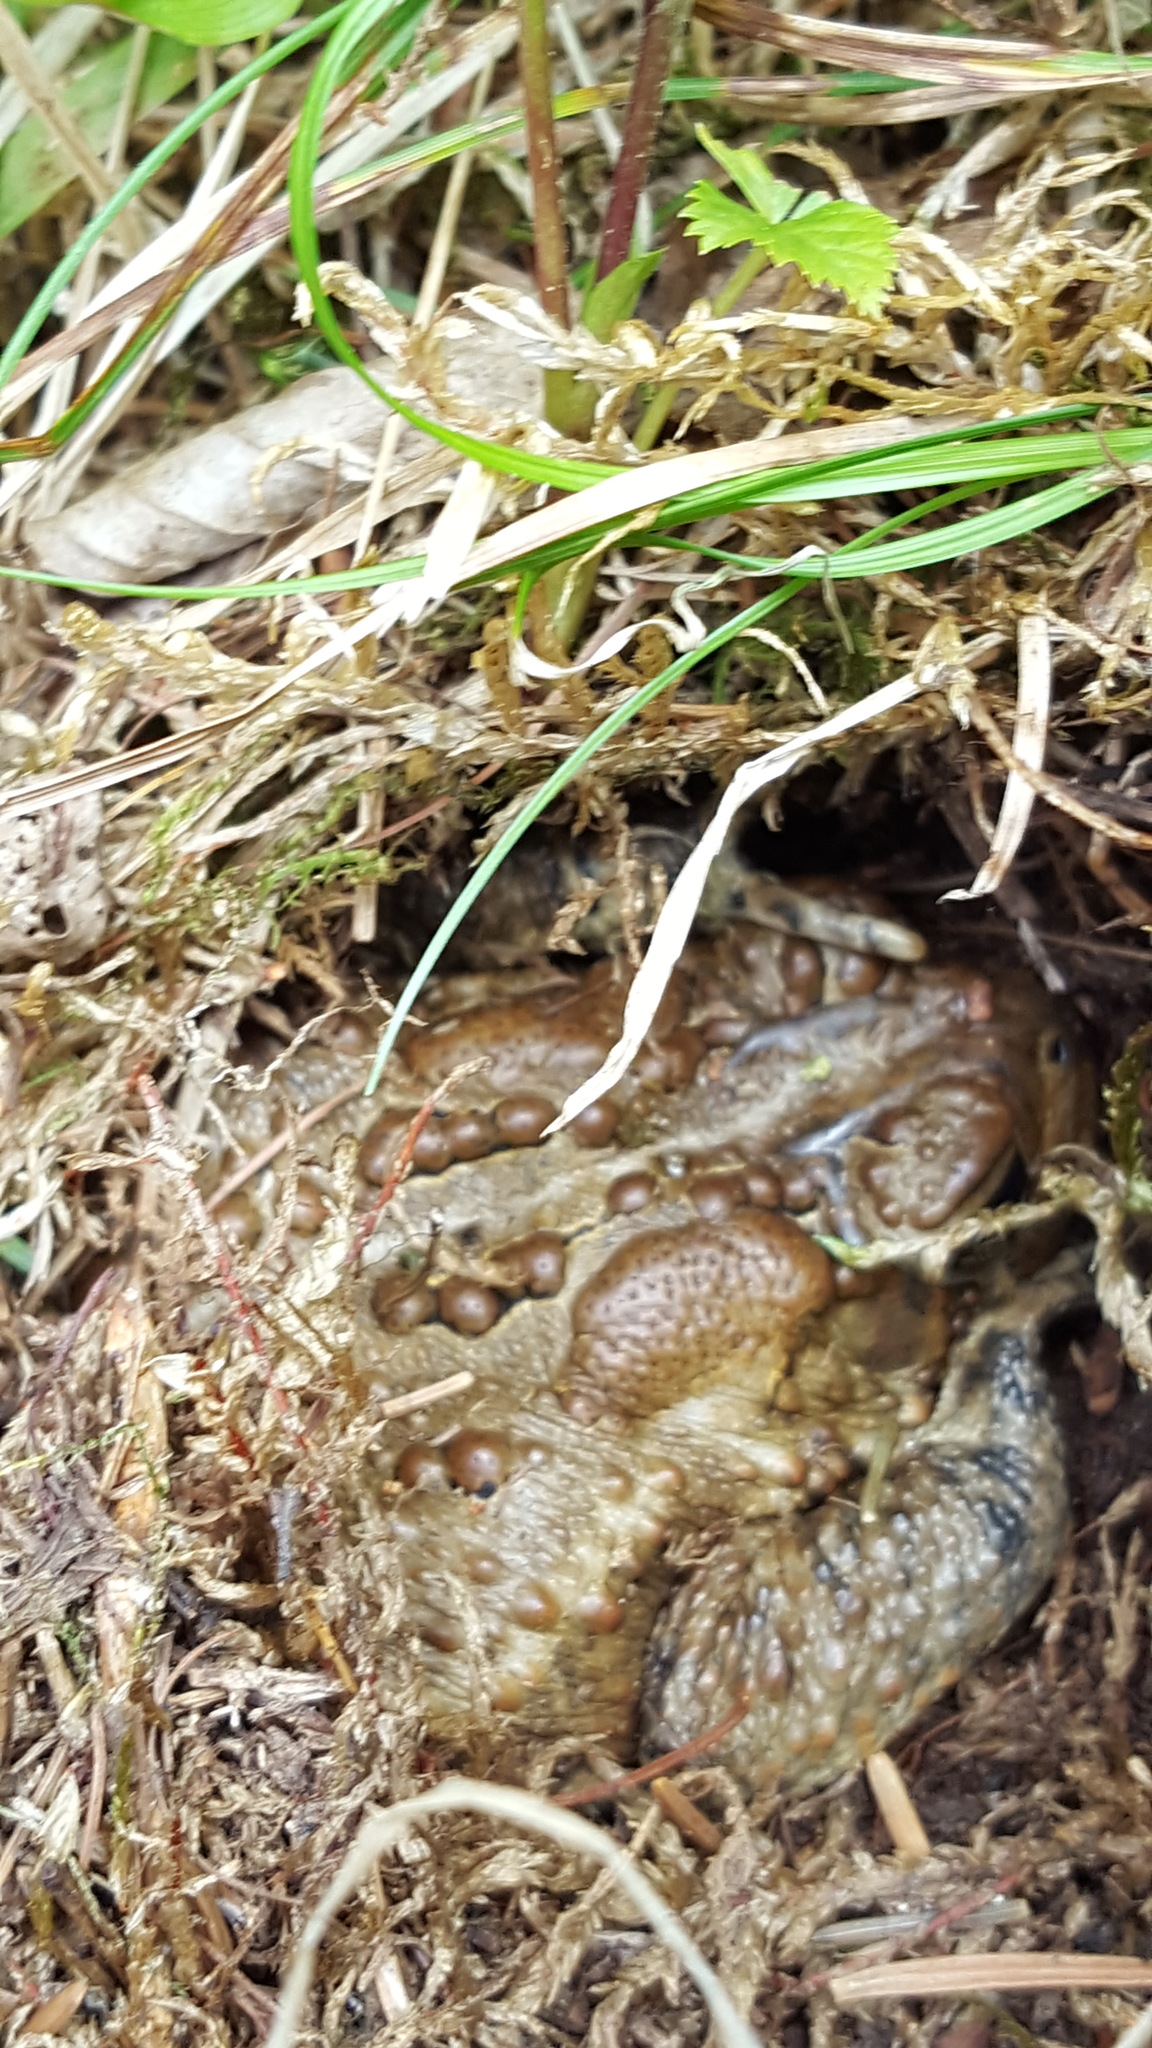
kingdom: Animalia
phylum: Chordata
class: Amphibia
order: Anura
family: Bufonidae
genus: Anaxyrus
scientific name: Anaxyrus americanus
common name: American toad
